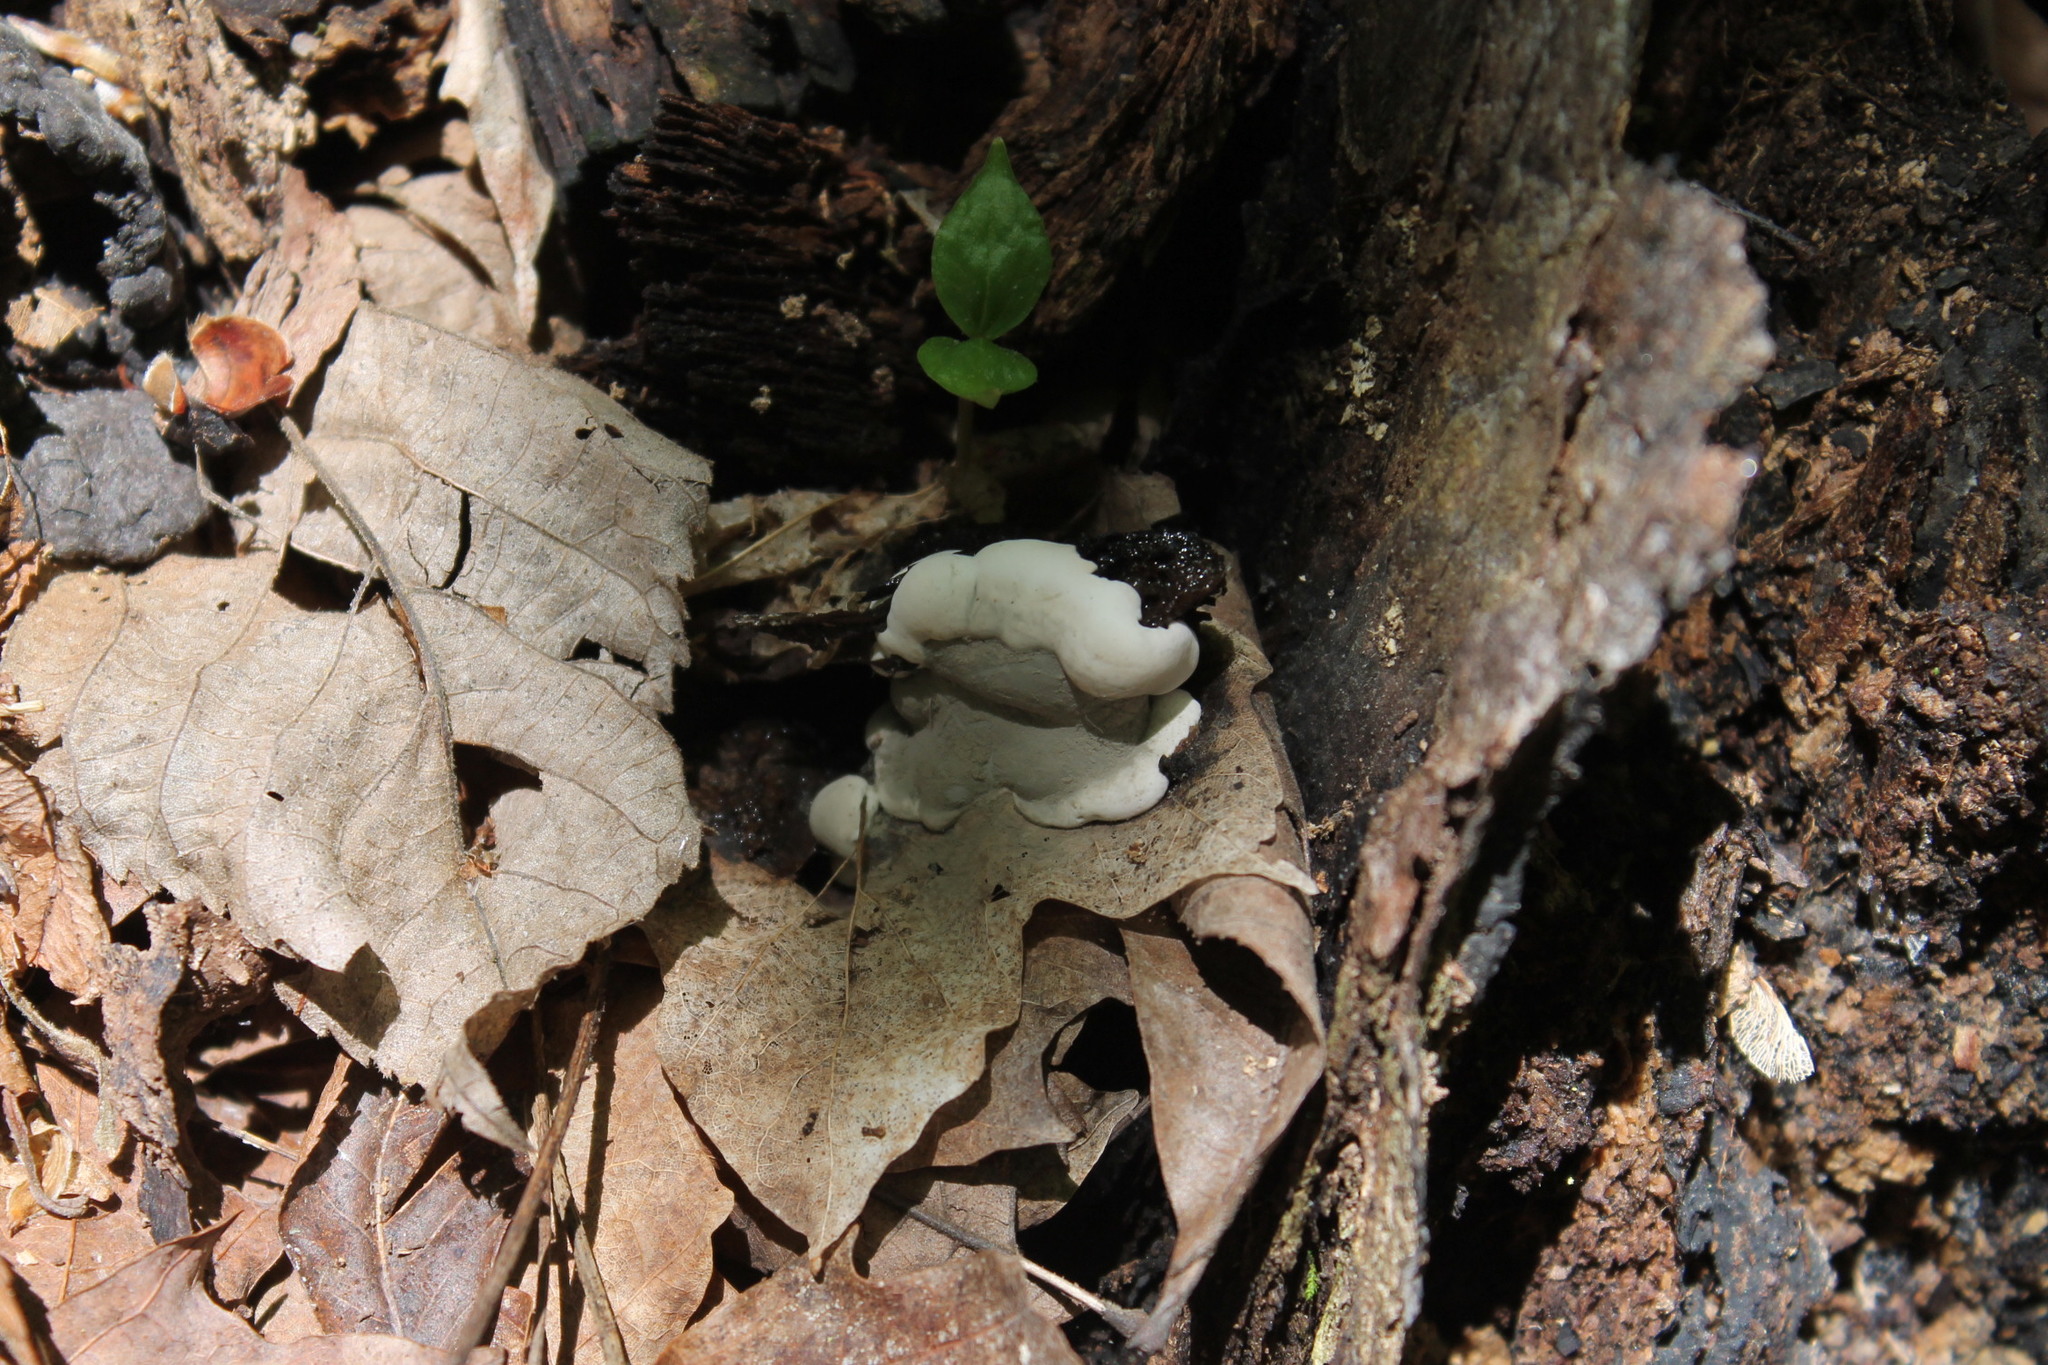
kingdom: Fungi
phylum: Ascomycota
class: Sordariomycetes
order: Xylariales
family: Xylariaceae
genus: Kretzschmaria
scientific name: Kretzschmaria deusta
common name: Brittle cinder
